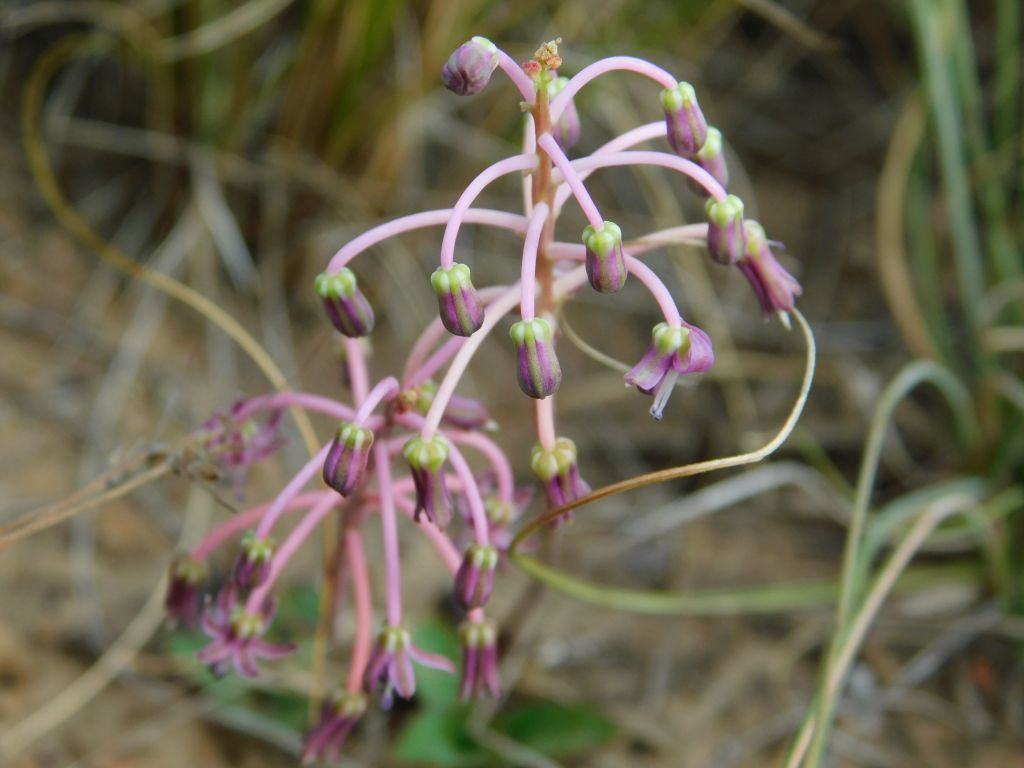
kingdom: Plantae
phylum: Tracheophyta
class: Liliopsida
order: Asparagales
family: Asparagaceae
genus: Ledebouria
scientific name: Ledebouria ovalifolia
